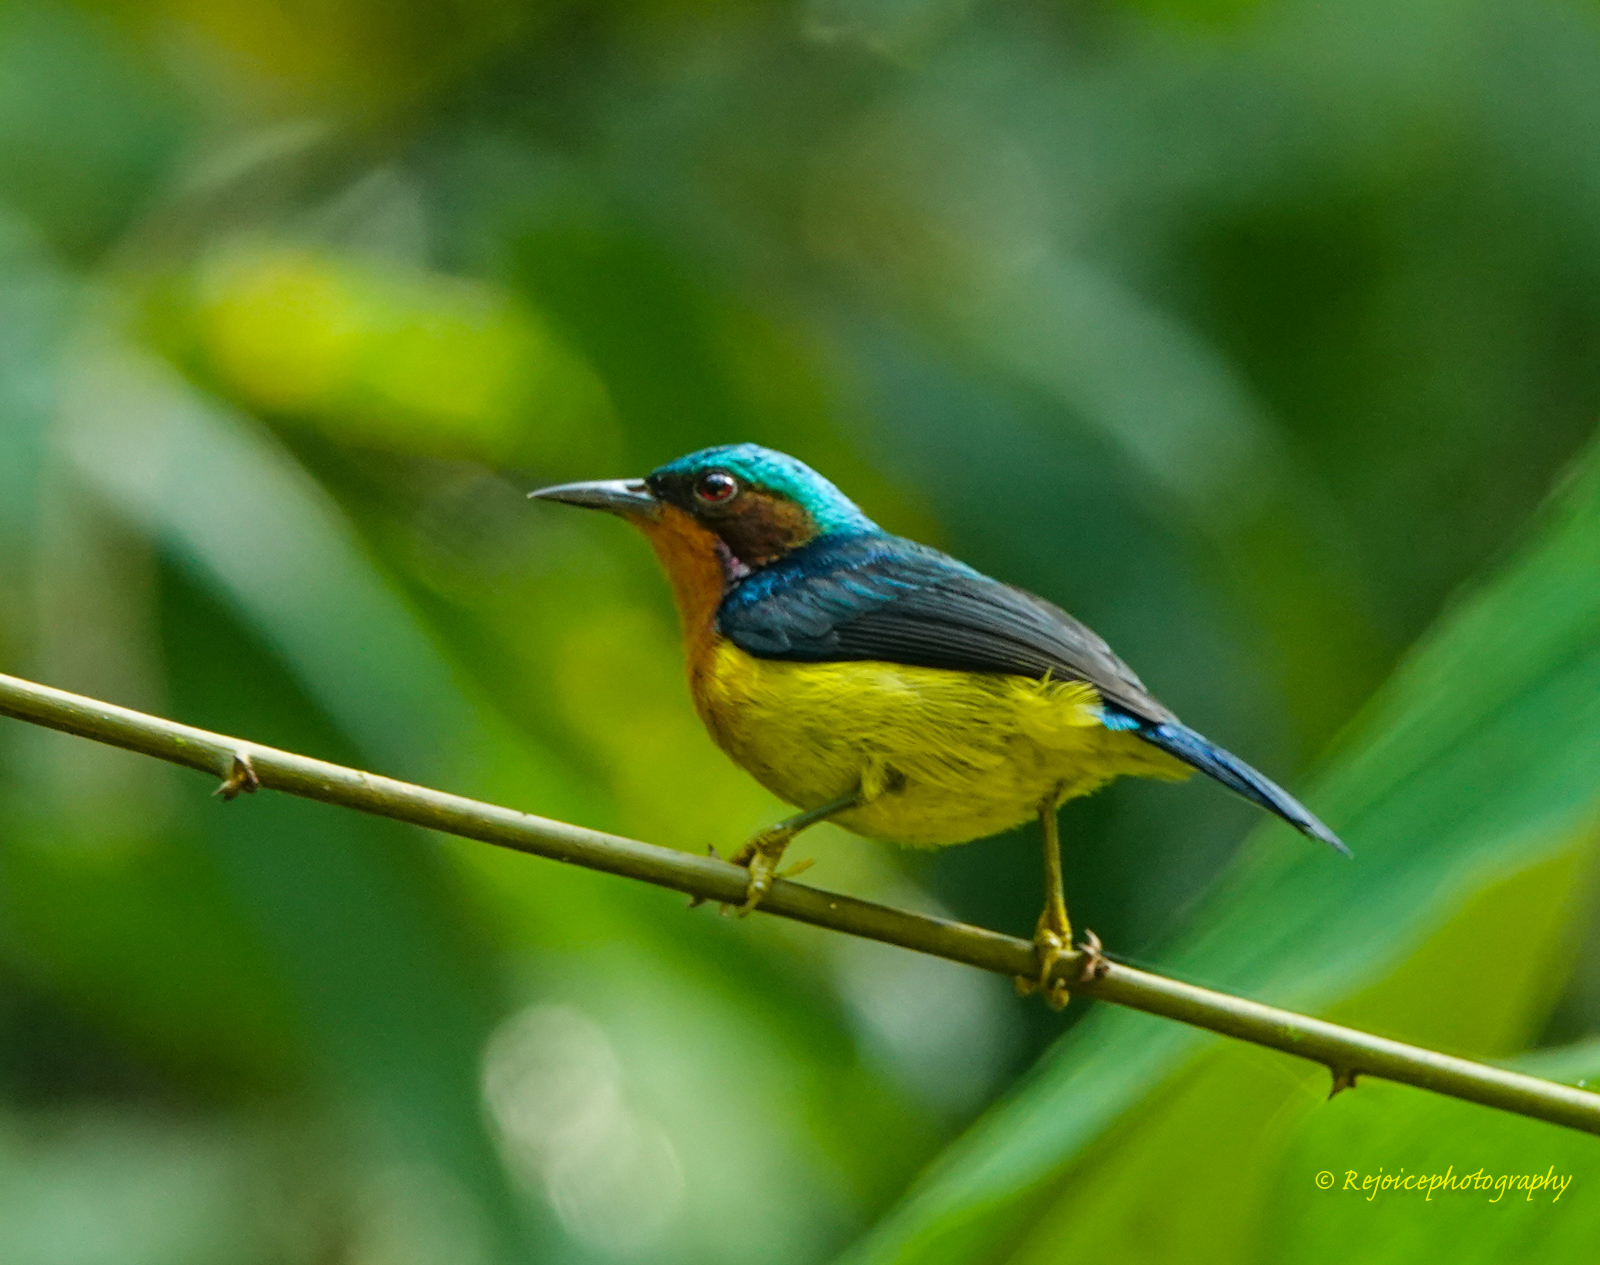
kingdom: Animalia
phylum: Chordata
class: Aves
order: Passeriformes
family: Nectariniidae
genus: Chalcoparia
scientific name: Chalcoparia singalensis
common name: Ruby-cheeked sunbird
